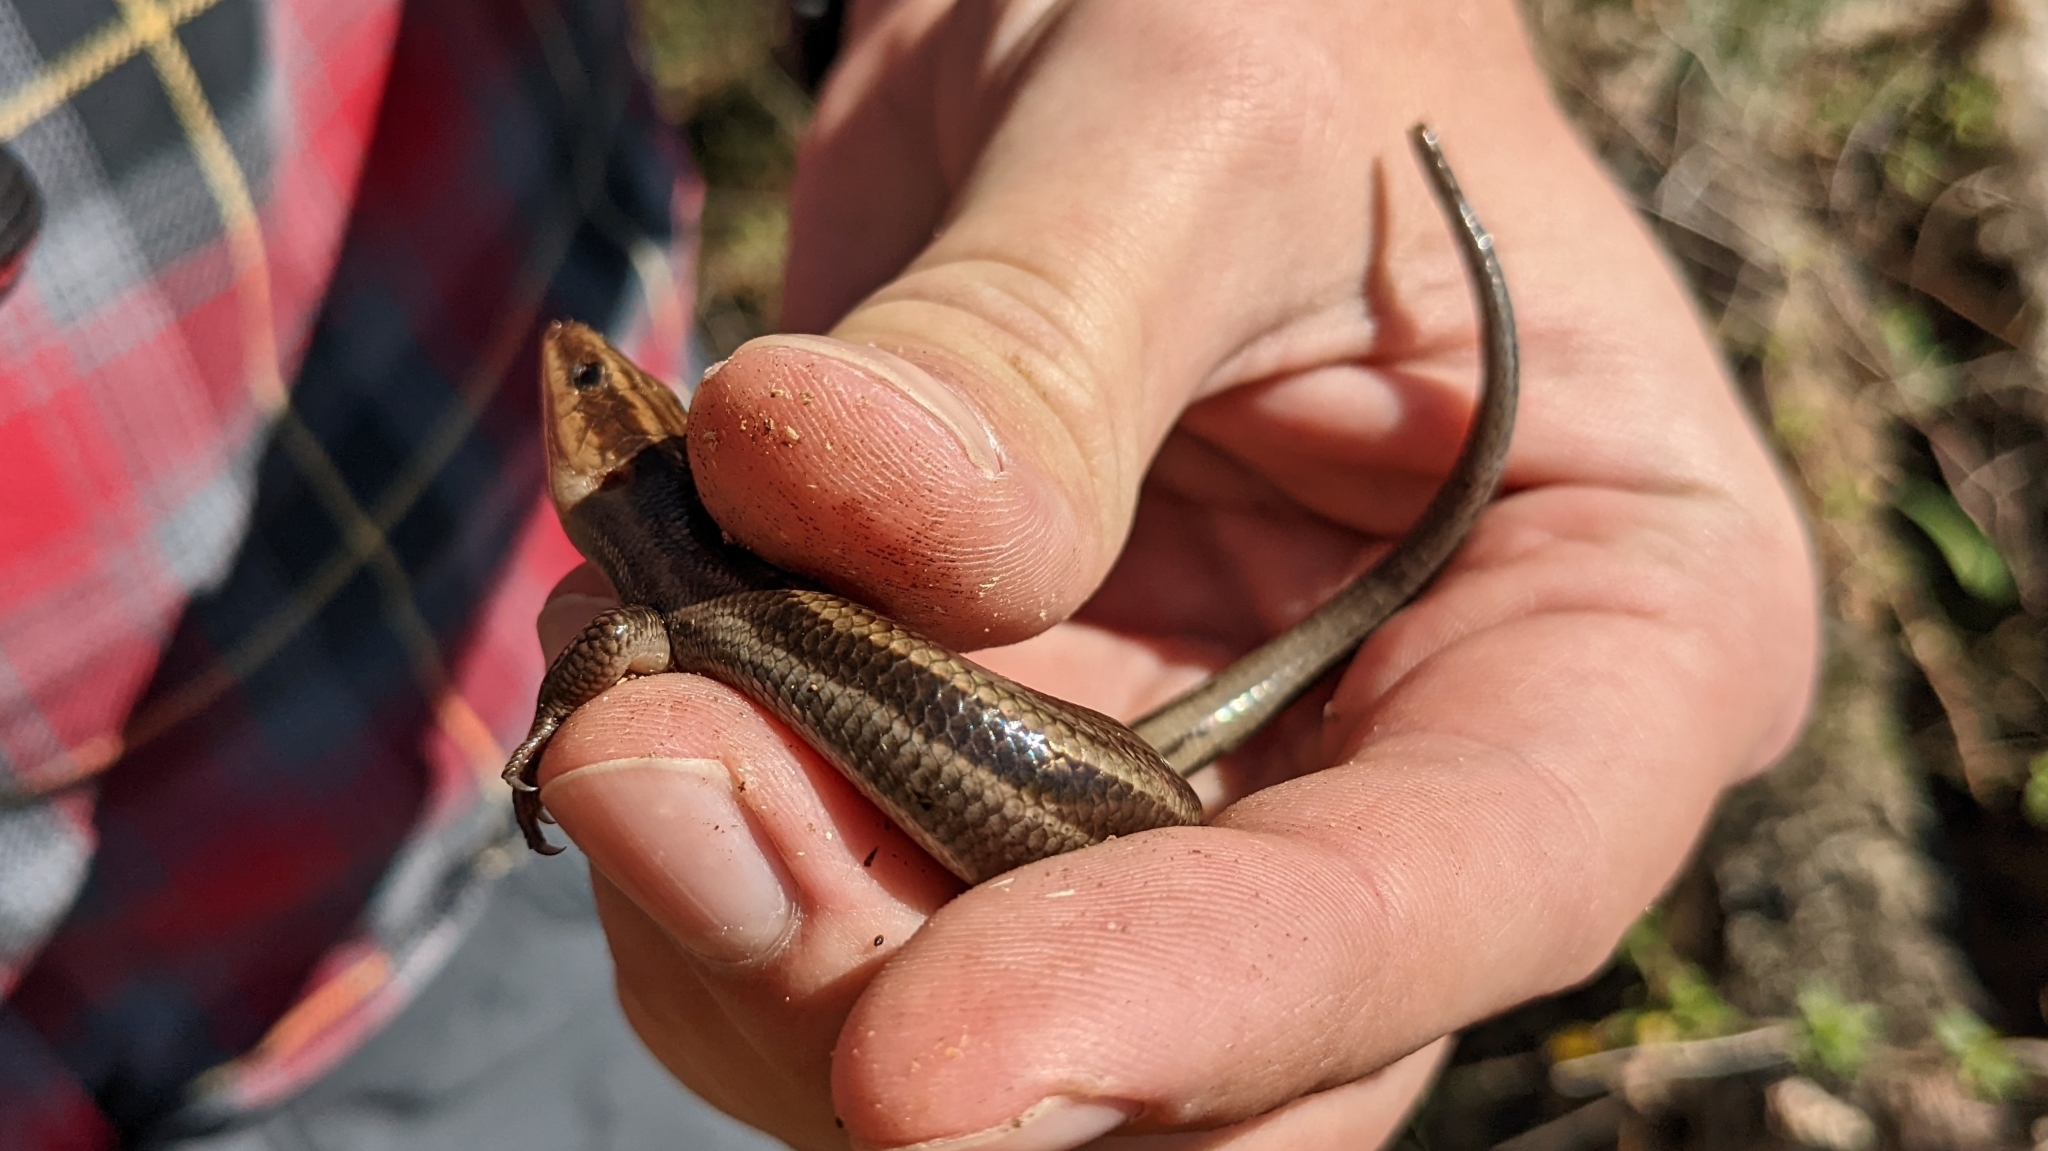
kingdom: Animalia
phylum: Chordata
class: Squamata
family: Scincidae
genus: Plestiodon
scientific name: Plestiodon laticeps
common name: Broadhead skink
